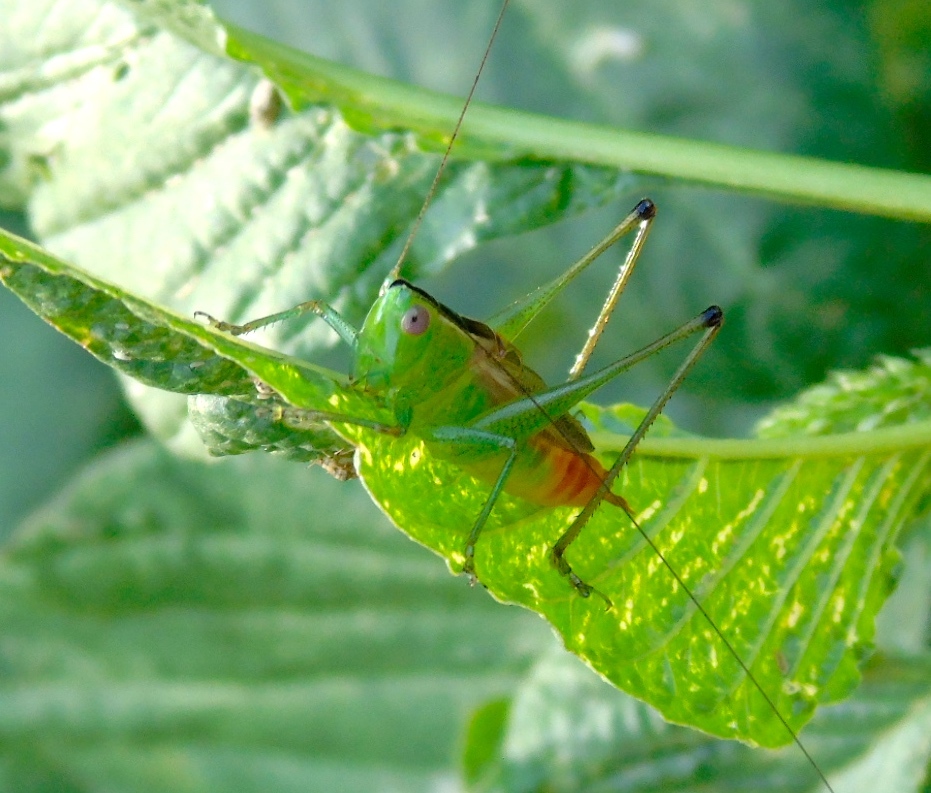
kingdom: Animalia
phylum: Arthropoda
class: Insecta
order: Orthoptera
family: Tettigoniidae
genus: Conocephalus
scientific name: Conocephalus
